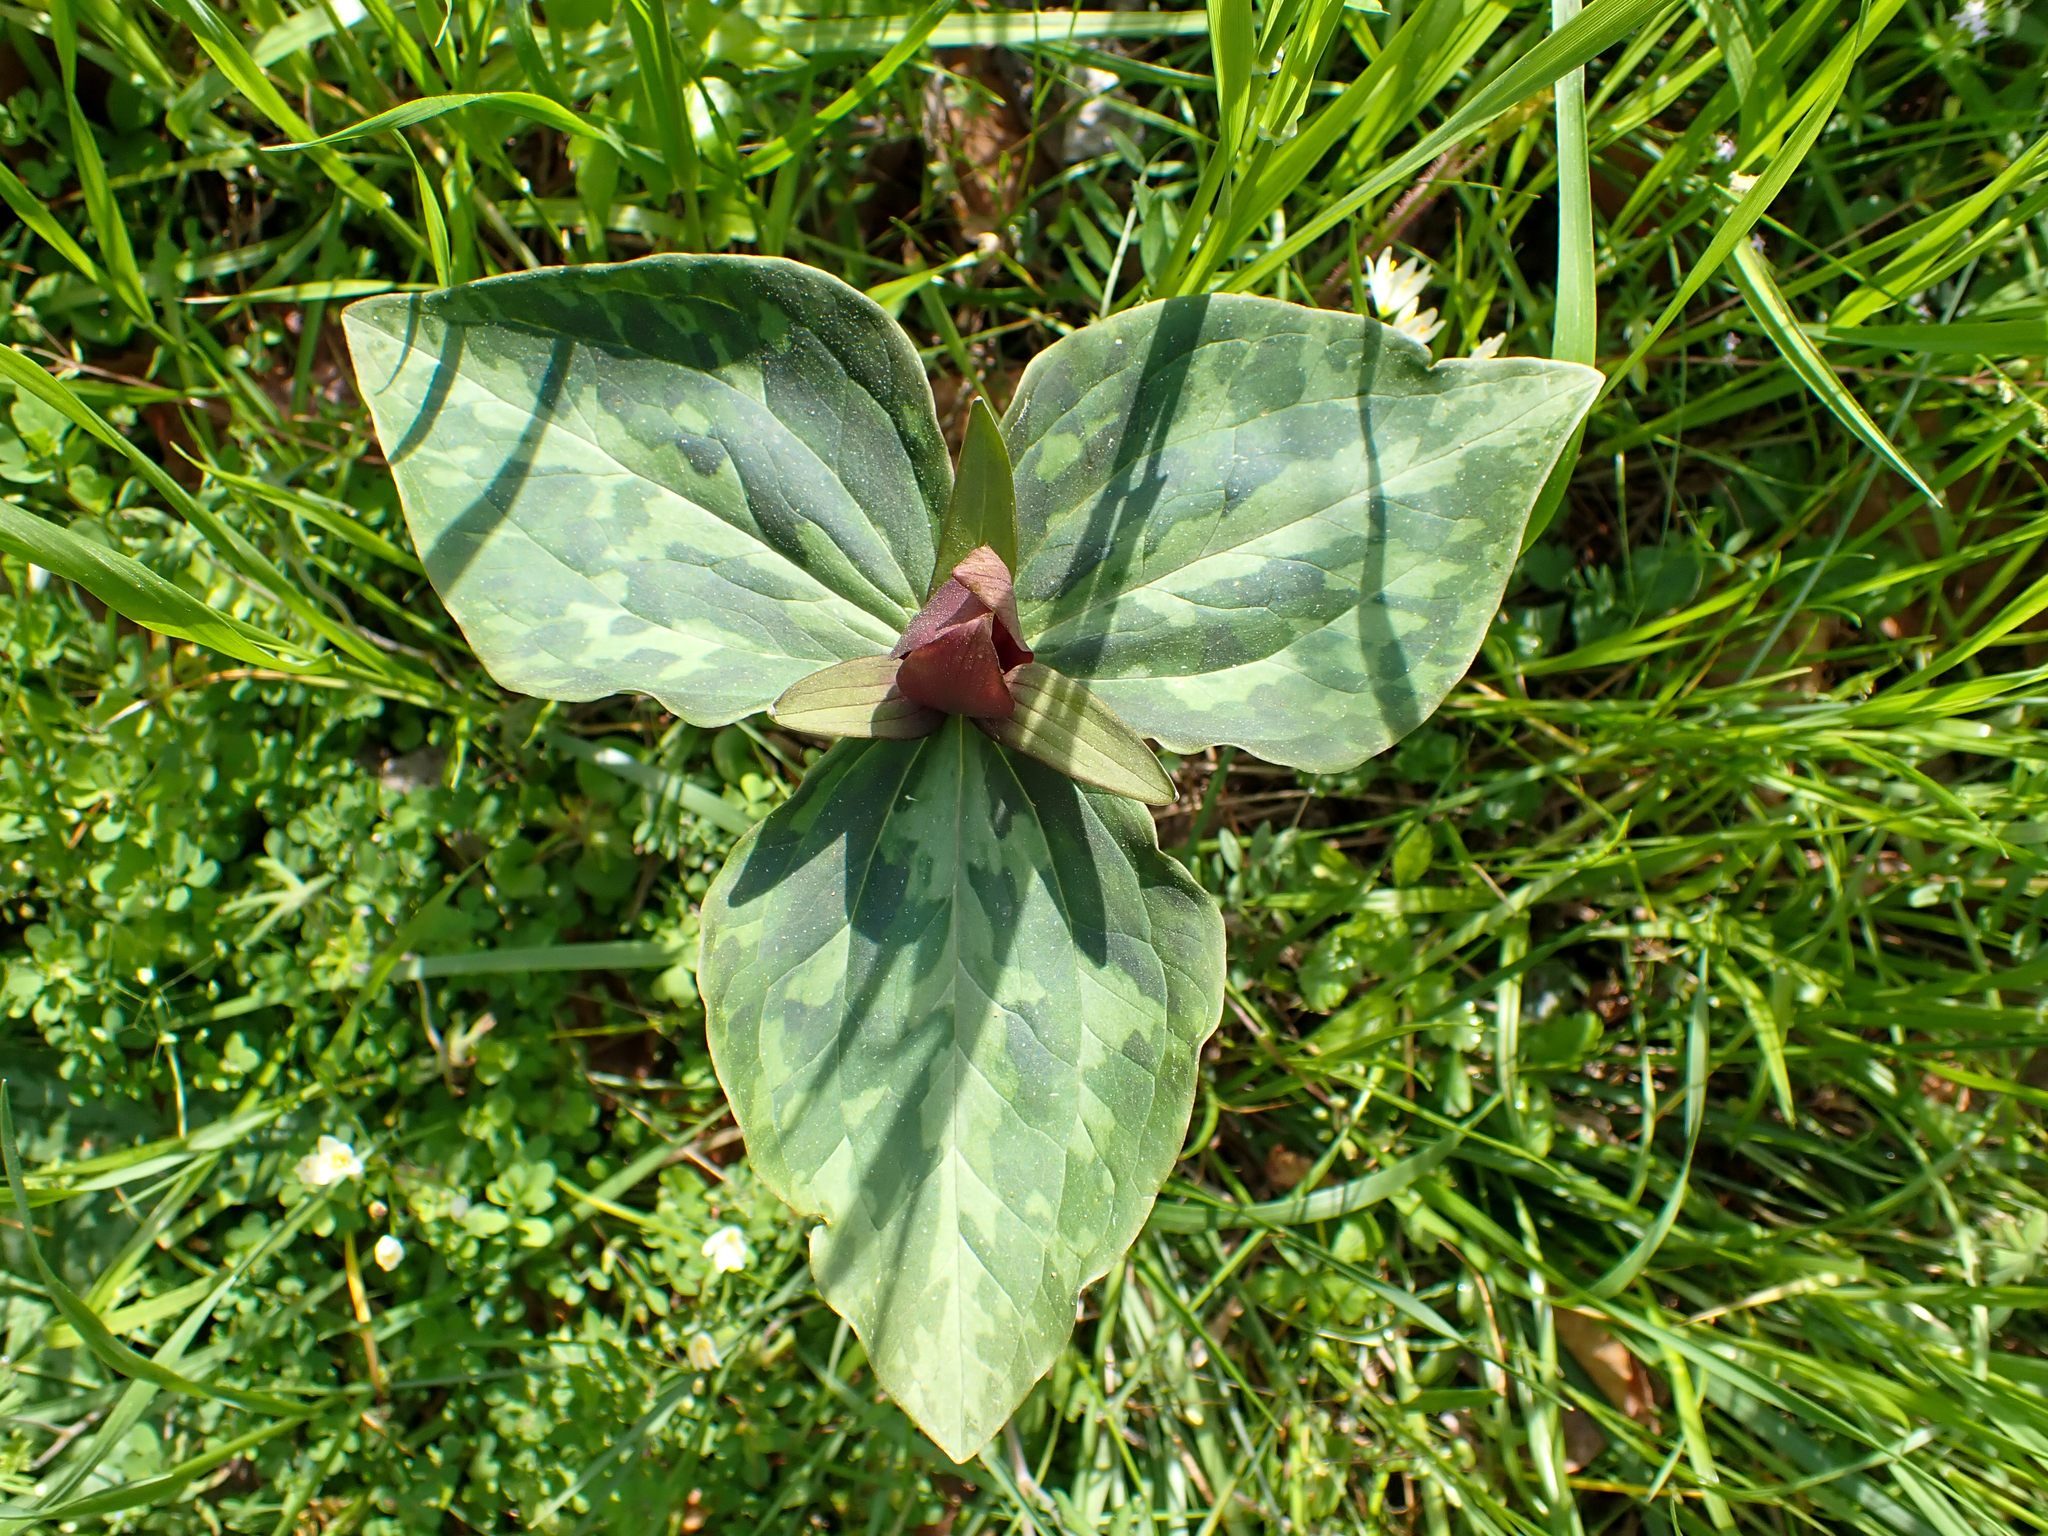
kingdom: Plantae
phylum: Tracheophyta
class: Liliopsida
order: Liliales
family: Melanthiaceae
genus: Trillium
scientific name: Trillium cuneatum
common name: Cuneate trillium
